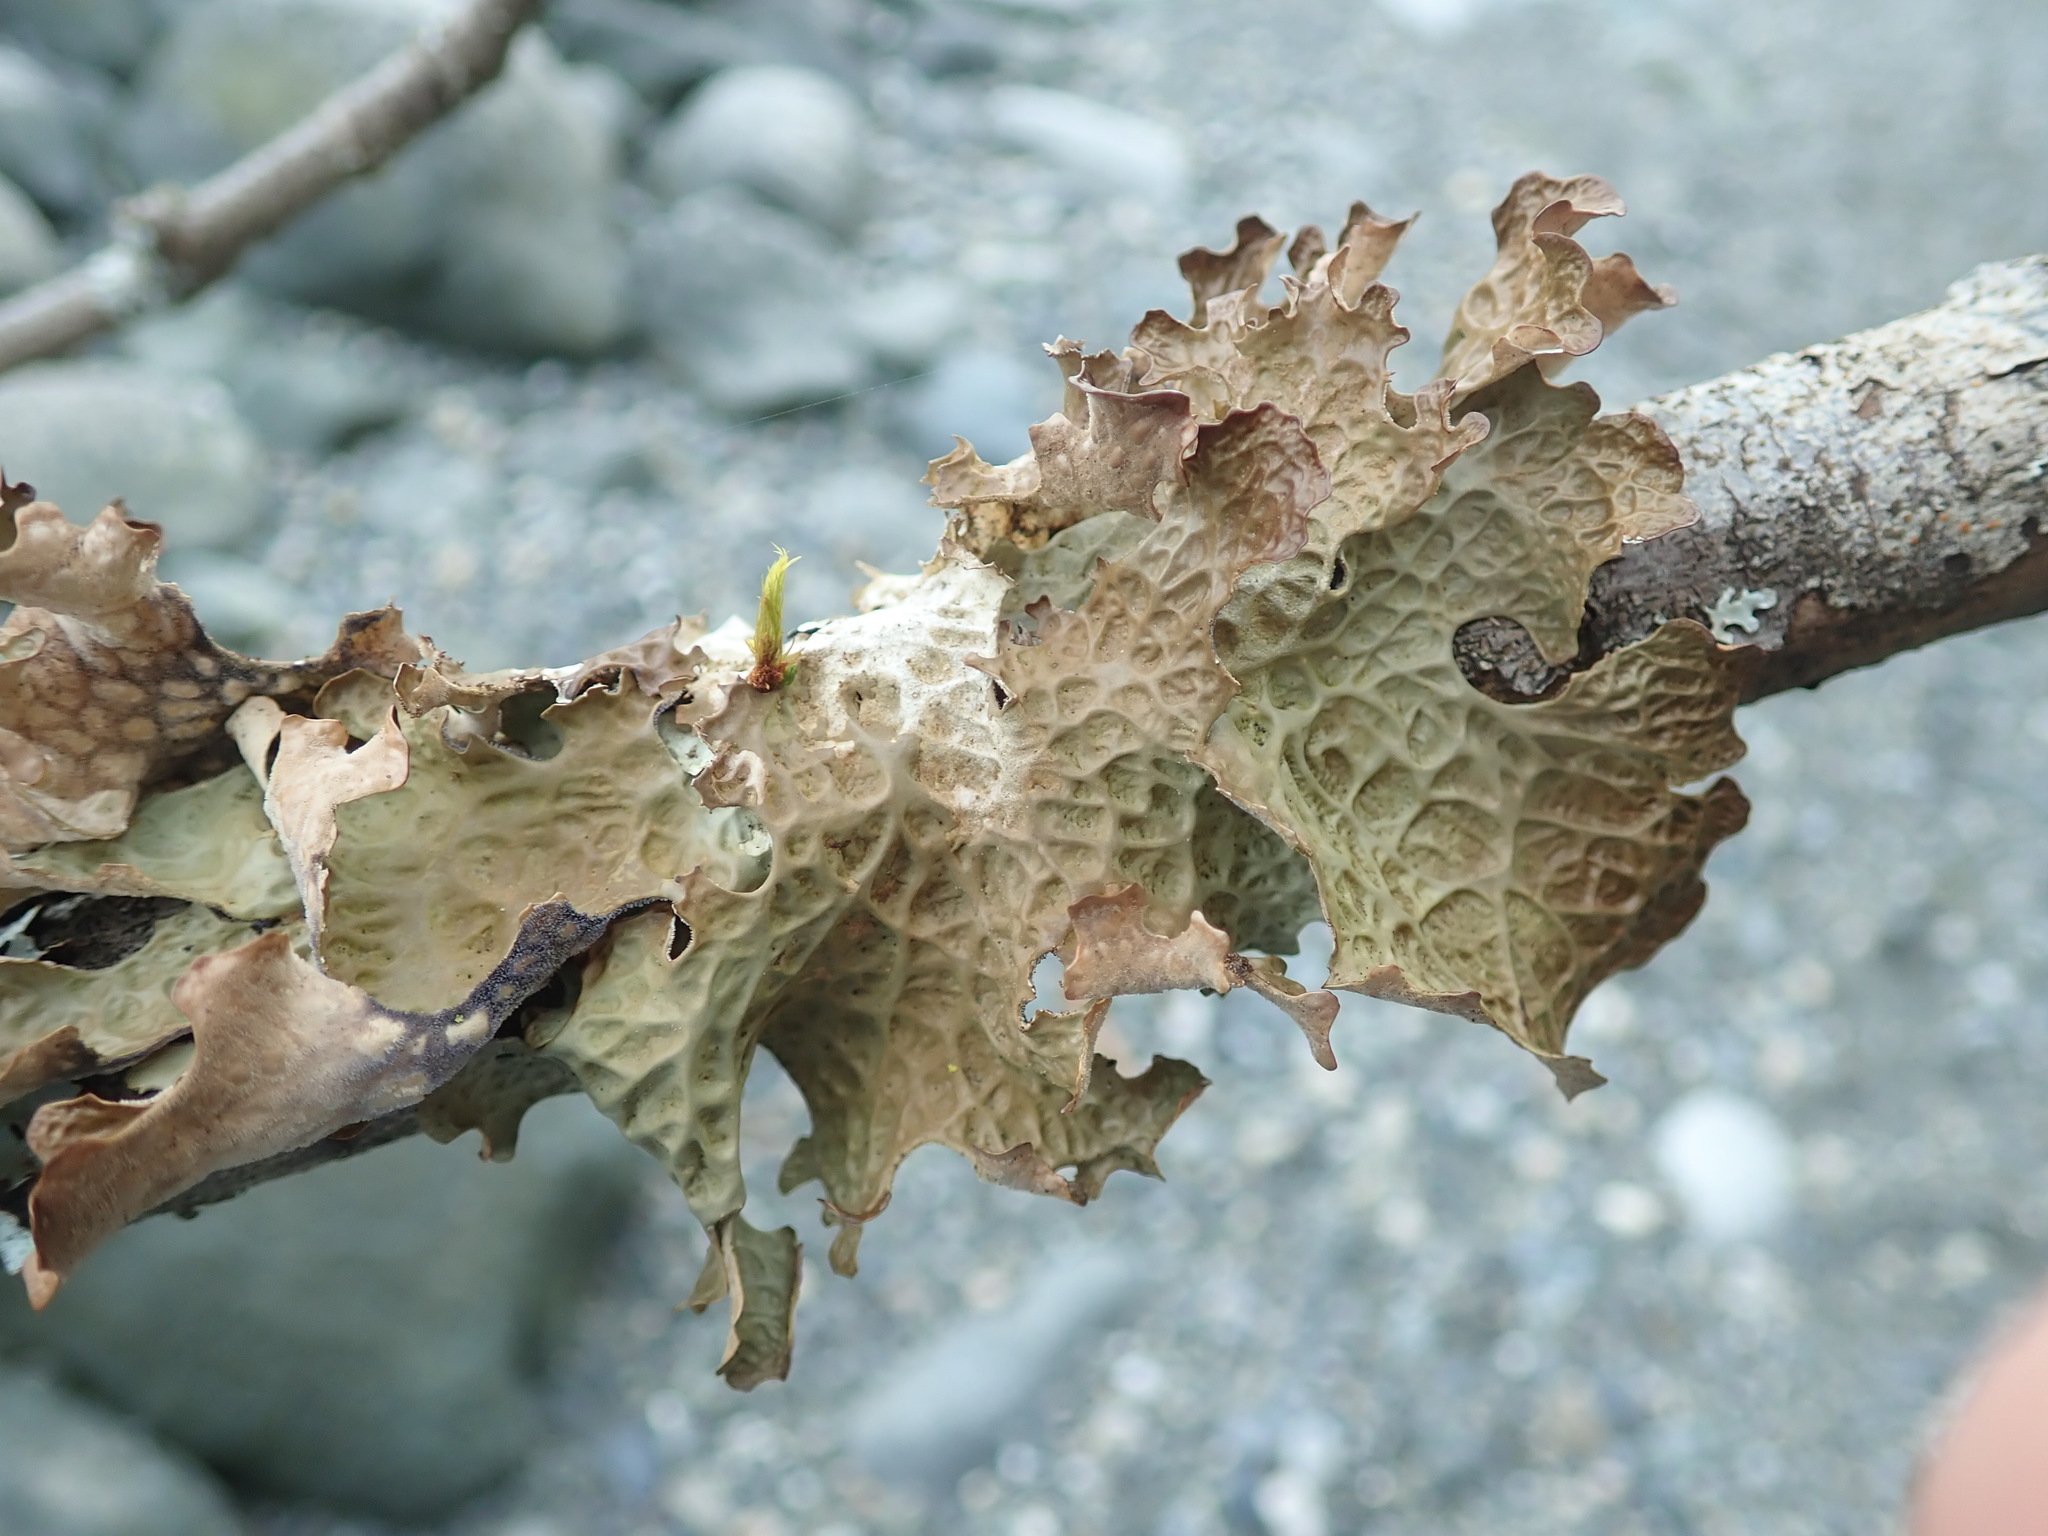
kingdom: Fungi
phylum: Ascomycota
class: Lecanoromycetes
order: Peltigerales
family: Lobariaceae
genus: Lobaria
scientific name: Lobaria pulmonaria
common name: Lungwort
